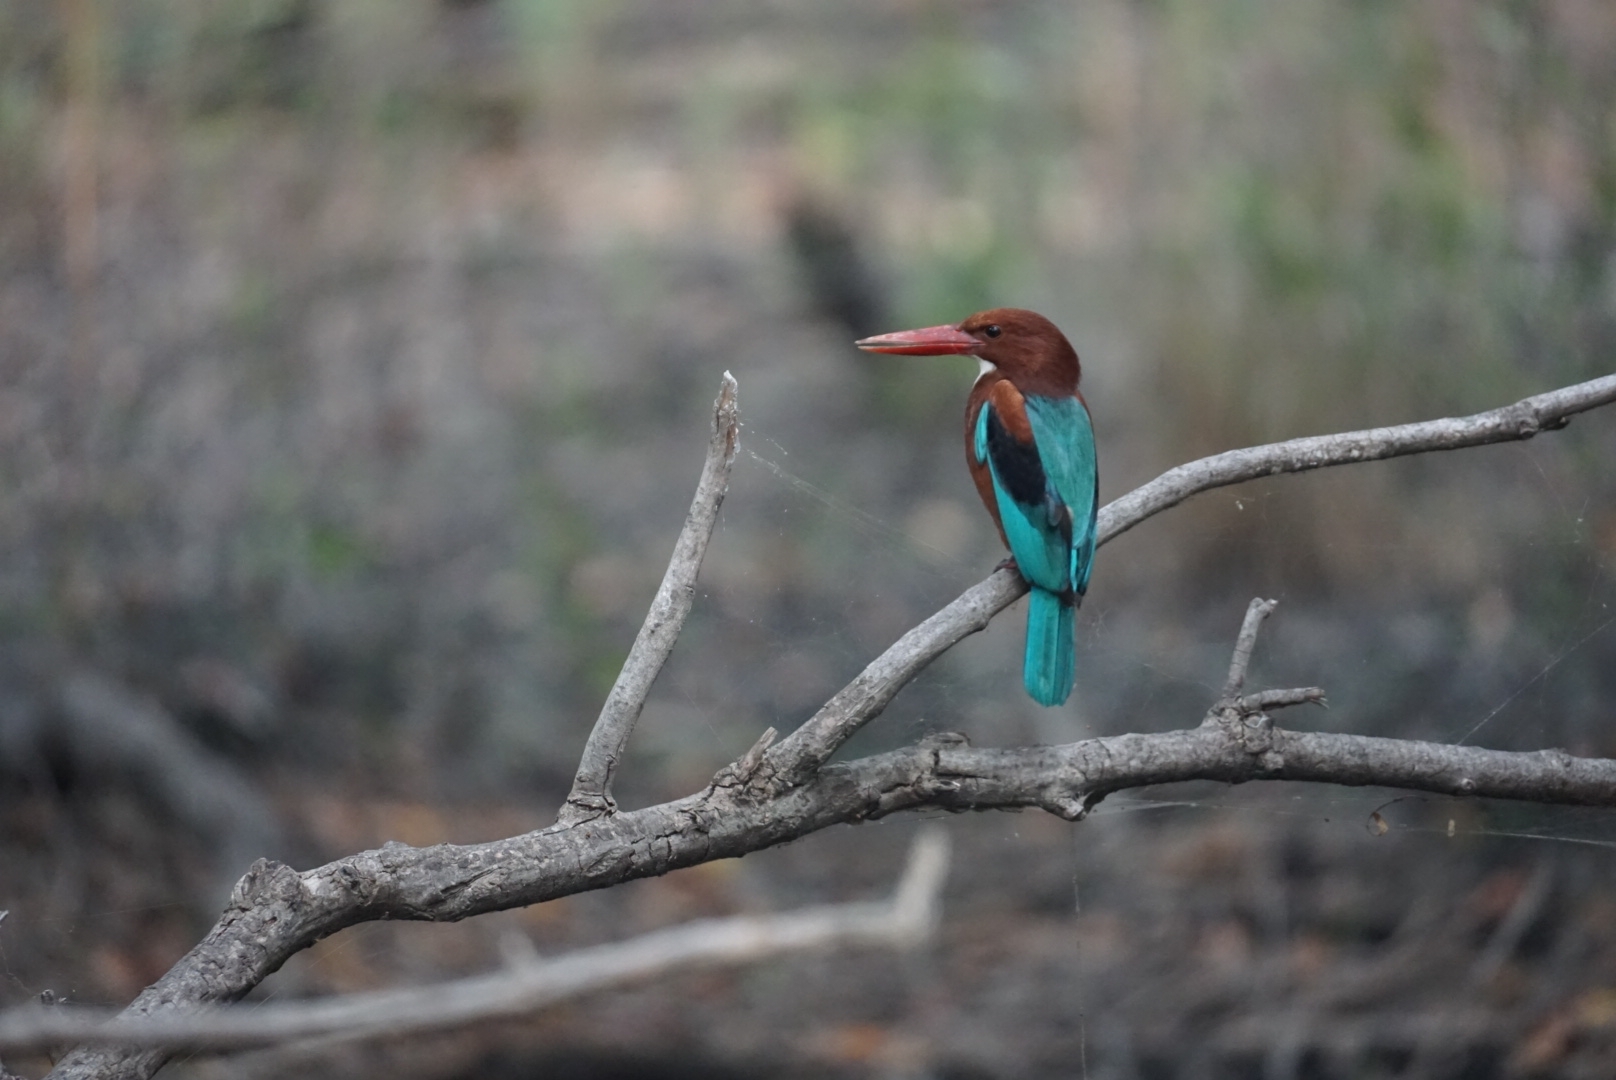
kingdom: Animalia
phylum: Chordata
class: Aves
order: Coraciiformes
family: Alcedinidae
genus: Halcyon
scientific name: Halcyon smyrnensis
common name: White-throated kingfisher
